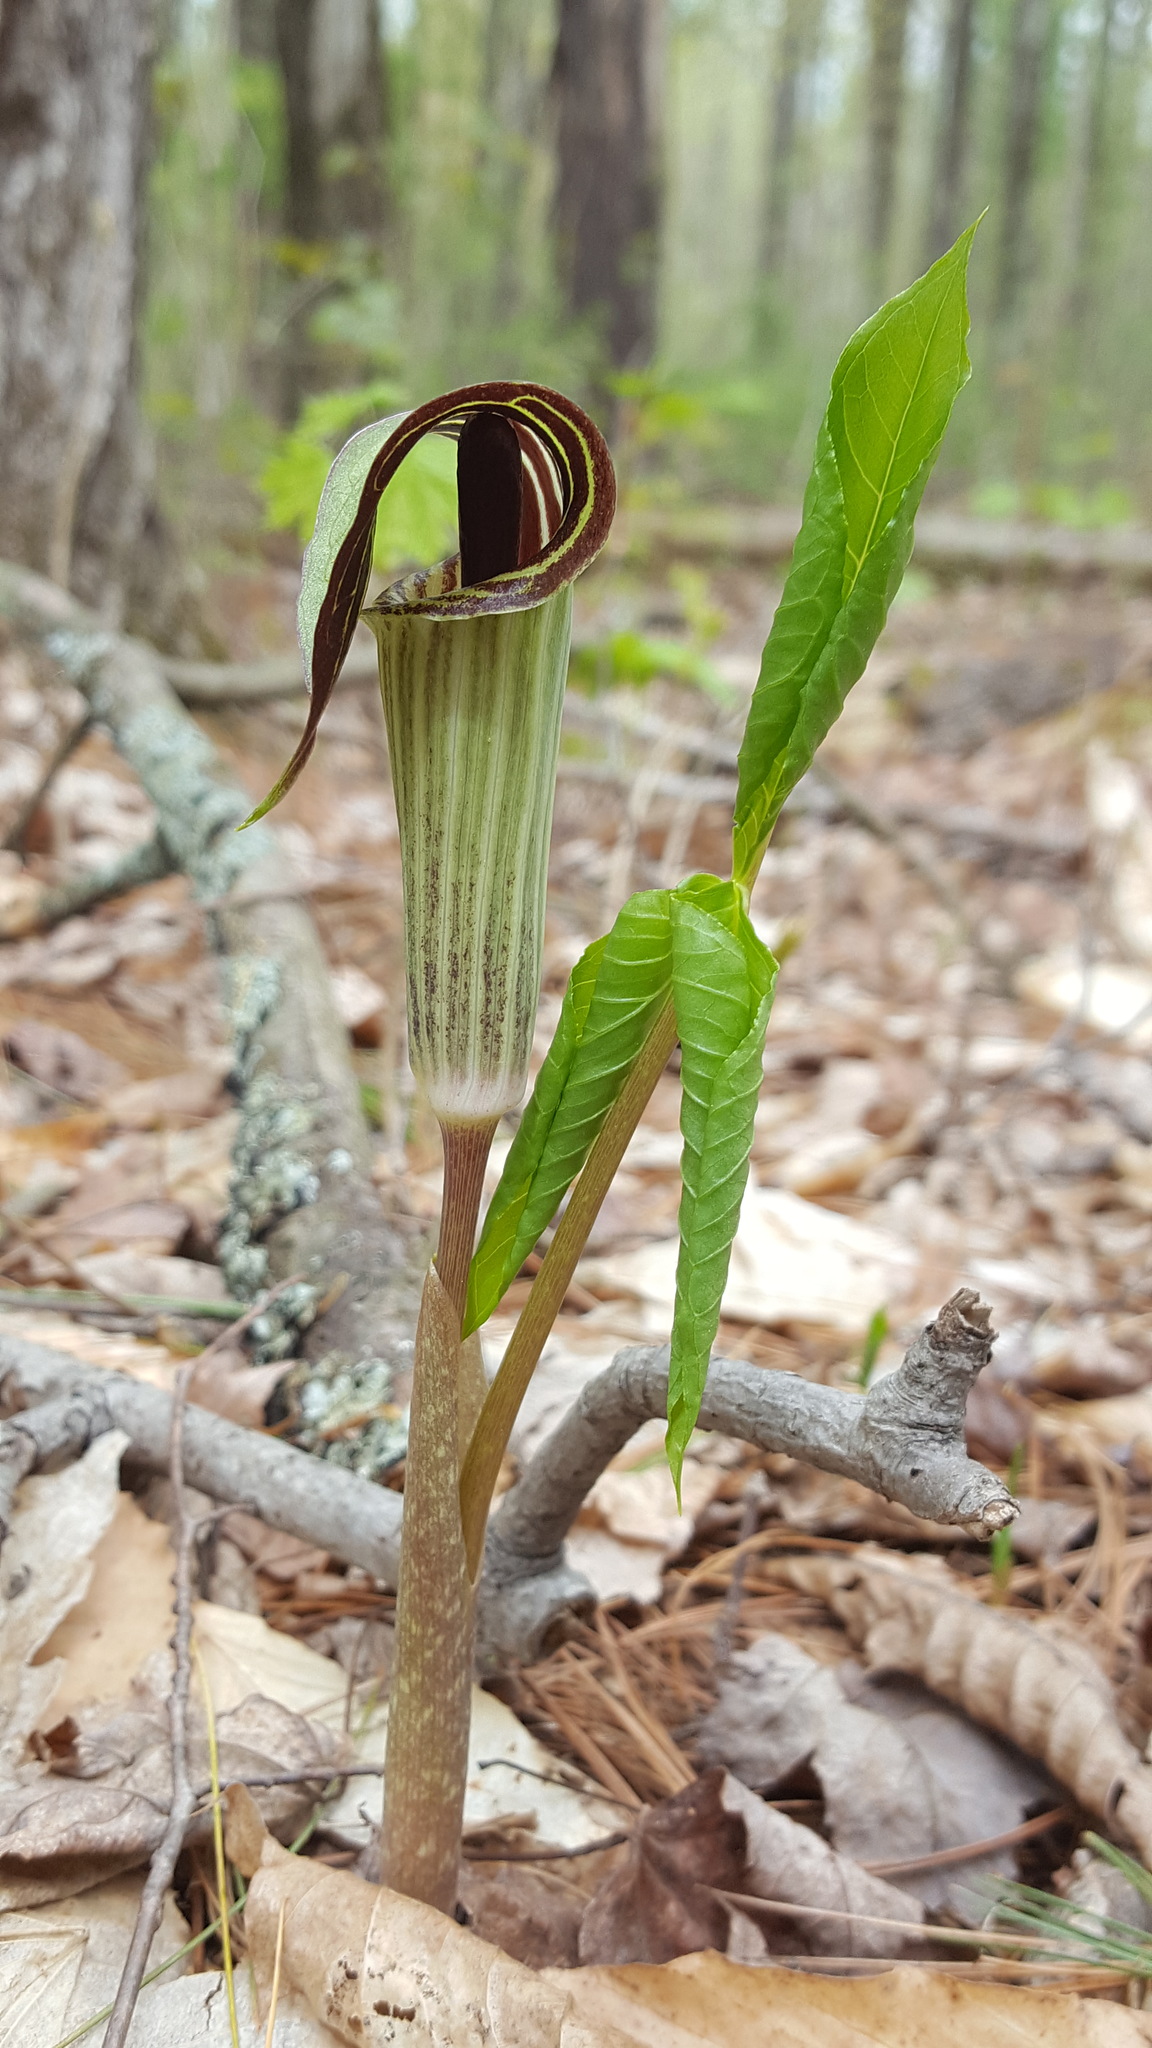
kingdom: Plantae
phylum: Tracheophyta
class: Liliopsida
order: Alismatales
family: Araceae
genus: Arisaema
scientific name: Arisaema triphyllum
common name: Jack-in-the-pulpit
